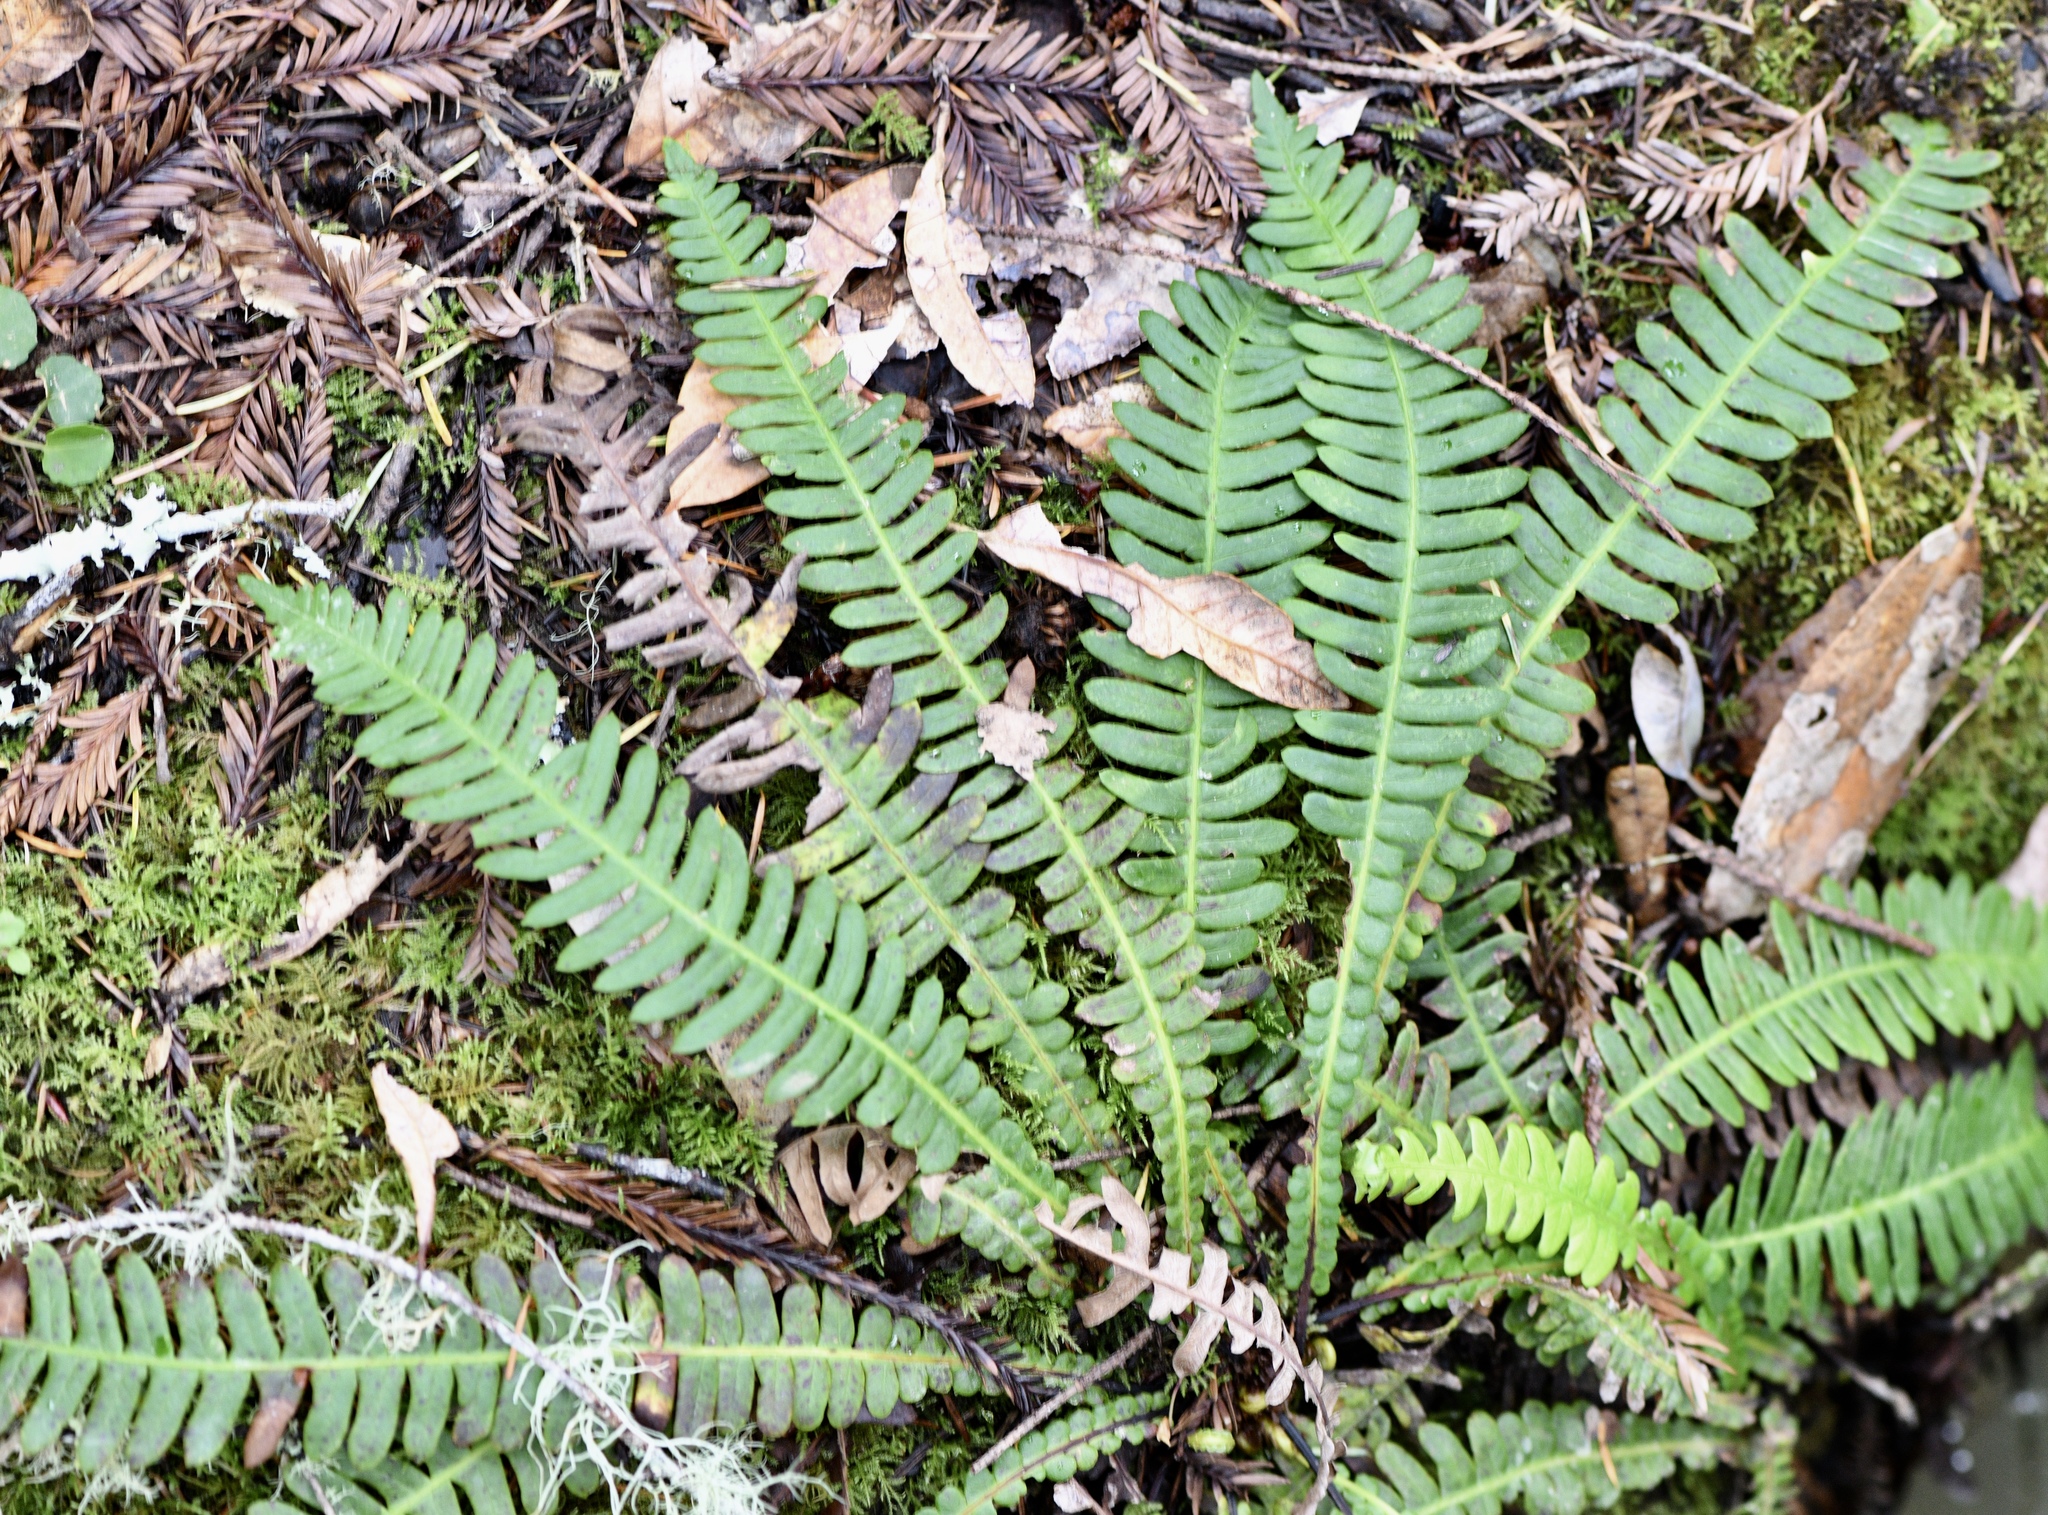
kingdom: Plantae
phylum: Tracheophyta
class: Polypodiopsida
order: Polypodiales
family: Blechnaceae
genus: Struthiopteris
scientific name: Struthiopteris spicant
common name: Deer fern
